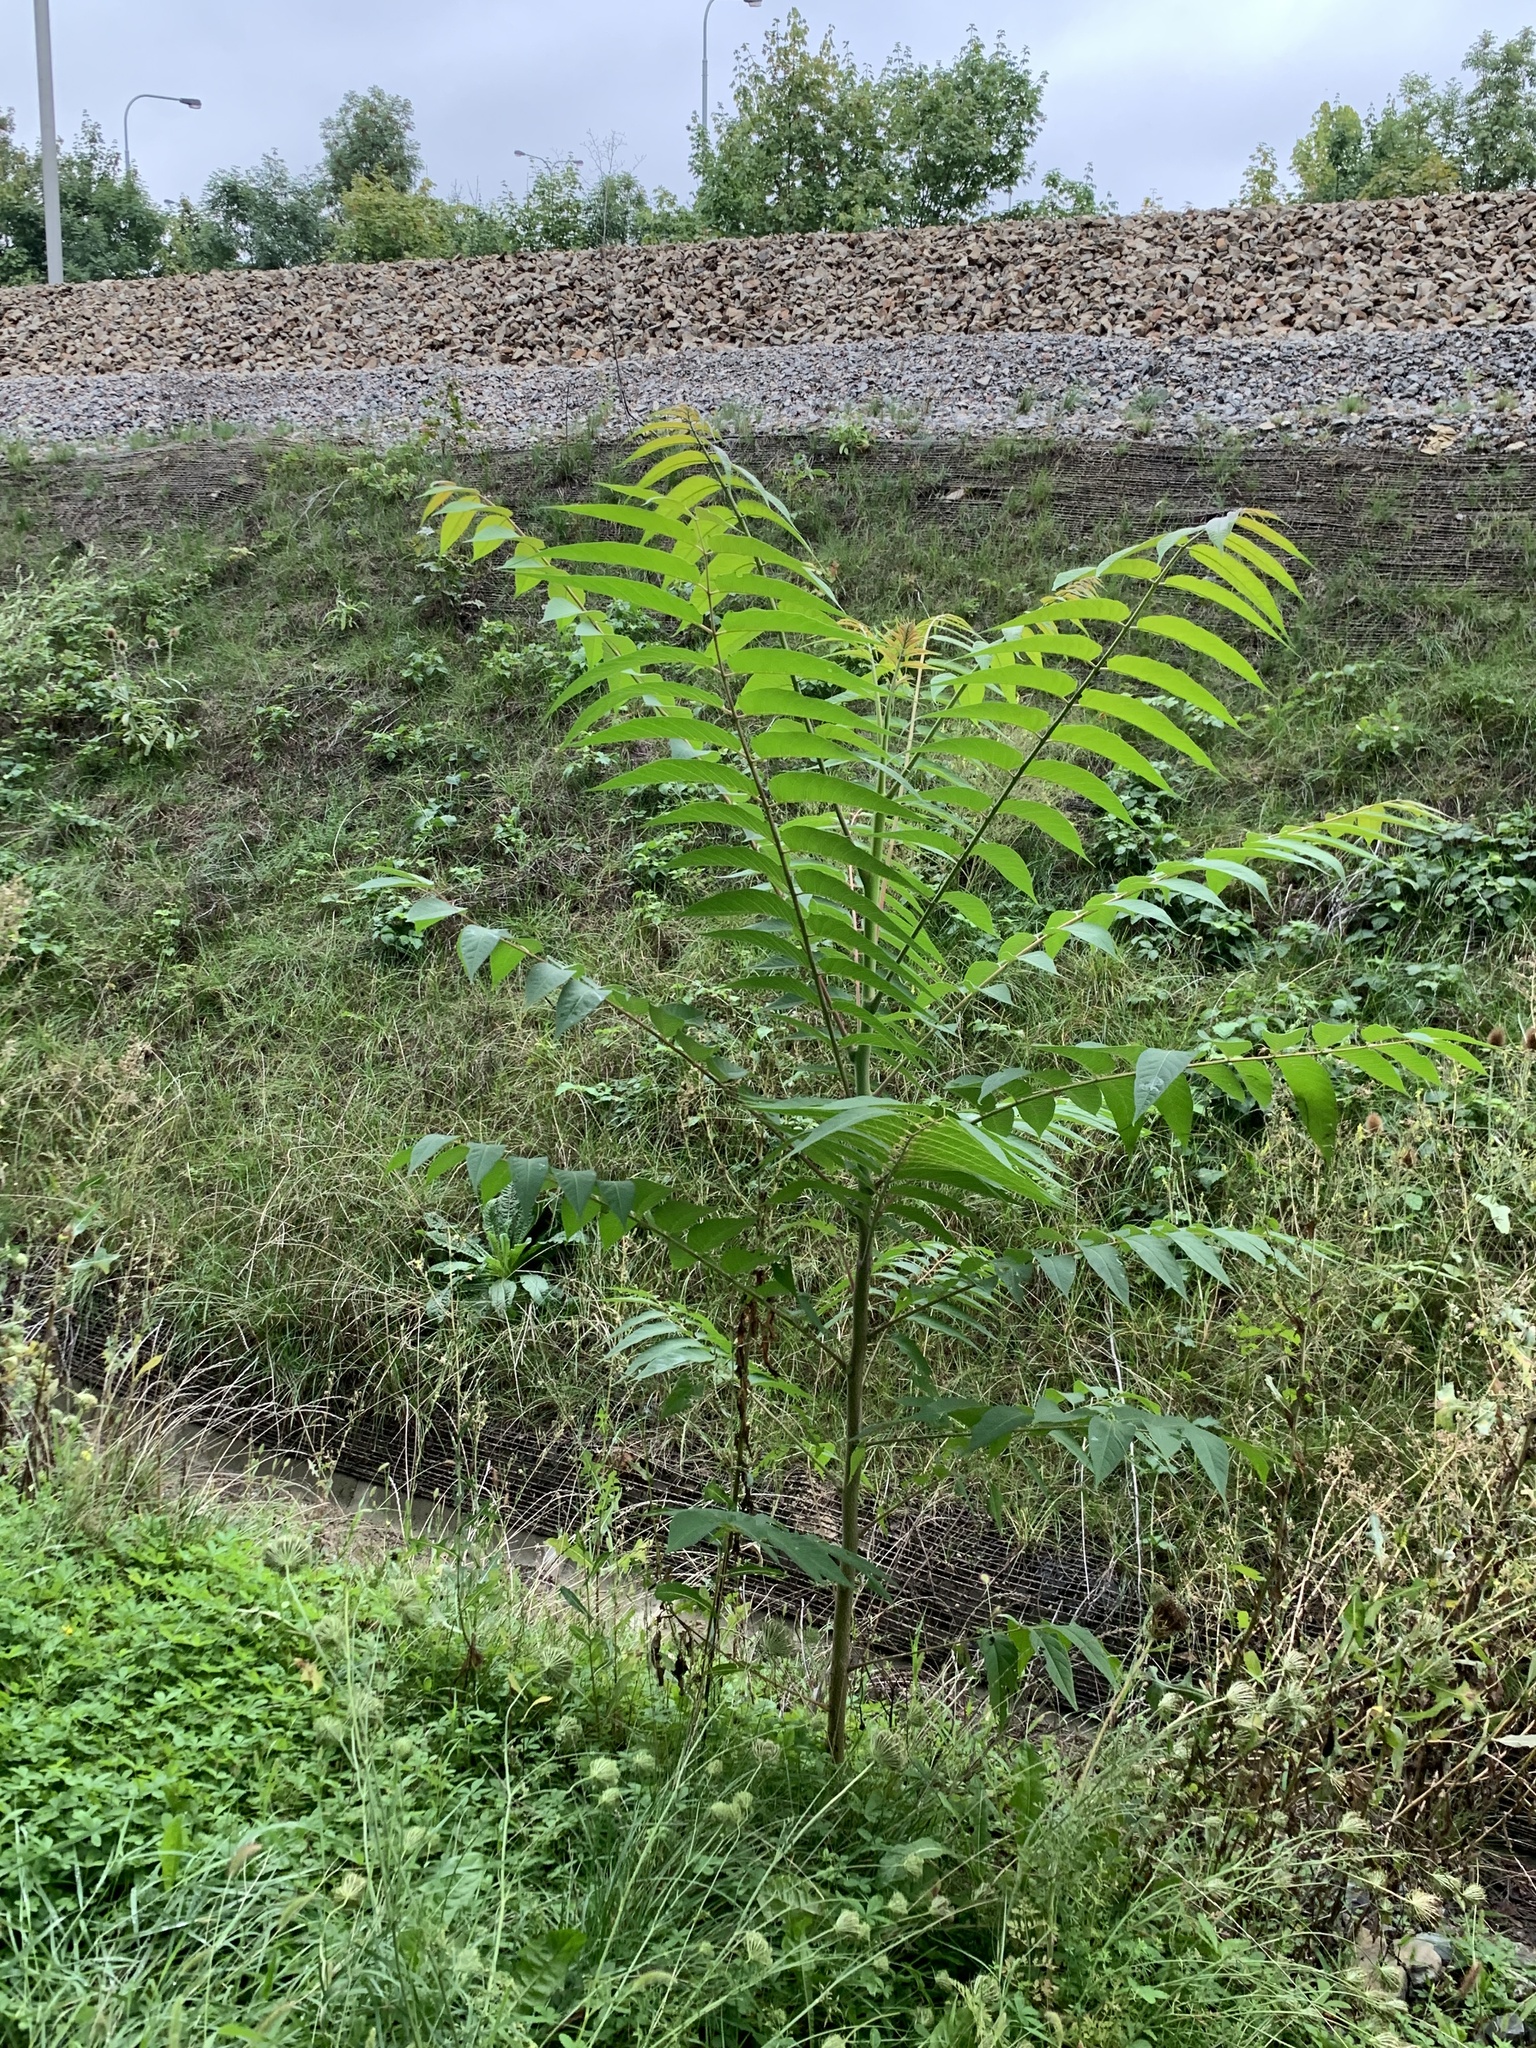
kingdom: Plantae
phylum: Tracheophyta
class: Magnoliopsida
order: Sapindales
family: Simaroubaceae
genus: Ailanthus
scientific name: Ailanthus altissima
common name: Tree-of-heaven
